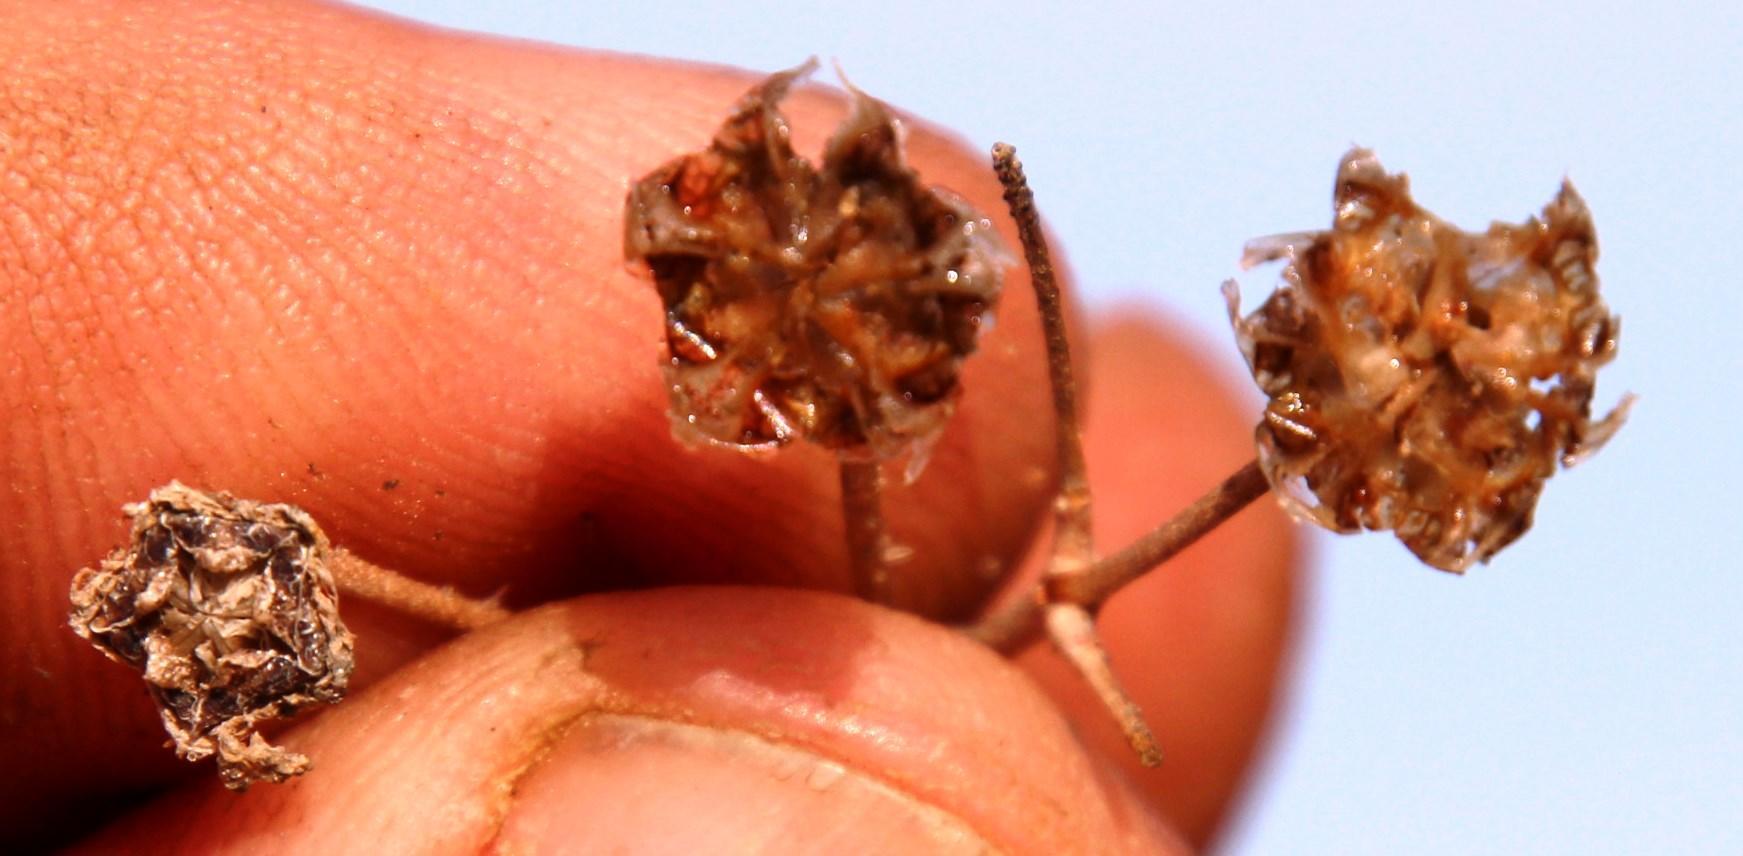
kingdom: Plantae
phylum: Tracheophyta
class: Magnoliopsida
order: Caryophyllales
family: Aizoaceae
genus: Drosanthemum
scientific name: Drosanthemum prostratum
